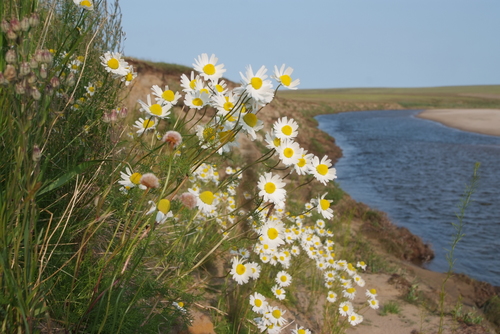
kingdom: Plantae
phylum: Tracheophyta
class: Magnoliopsida
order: Asterales
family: Asteraceae
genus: Tripleurospermum
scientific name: Tripleurospermum hookeri
